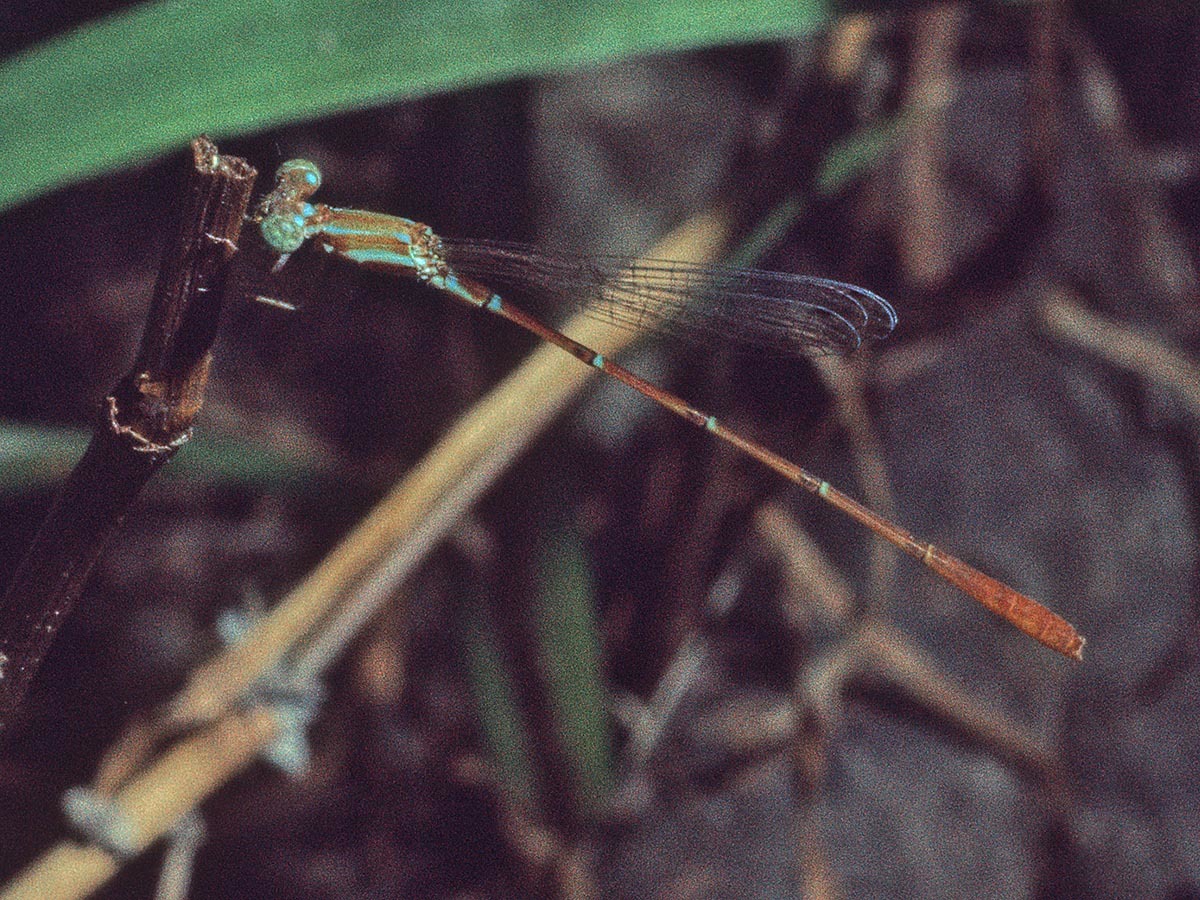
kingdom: Animalia
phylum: Arthropoda
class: Insecta
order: Odonata
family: Coenagrionidae
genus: Calvertagrion
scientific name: Calvertagrion charis
